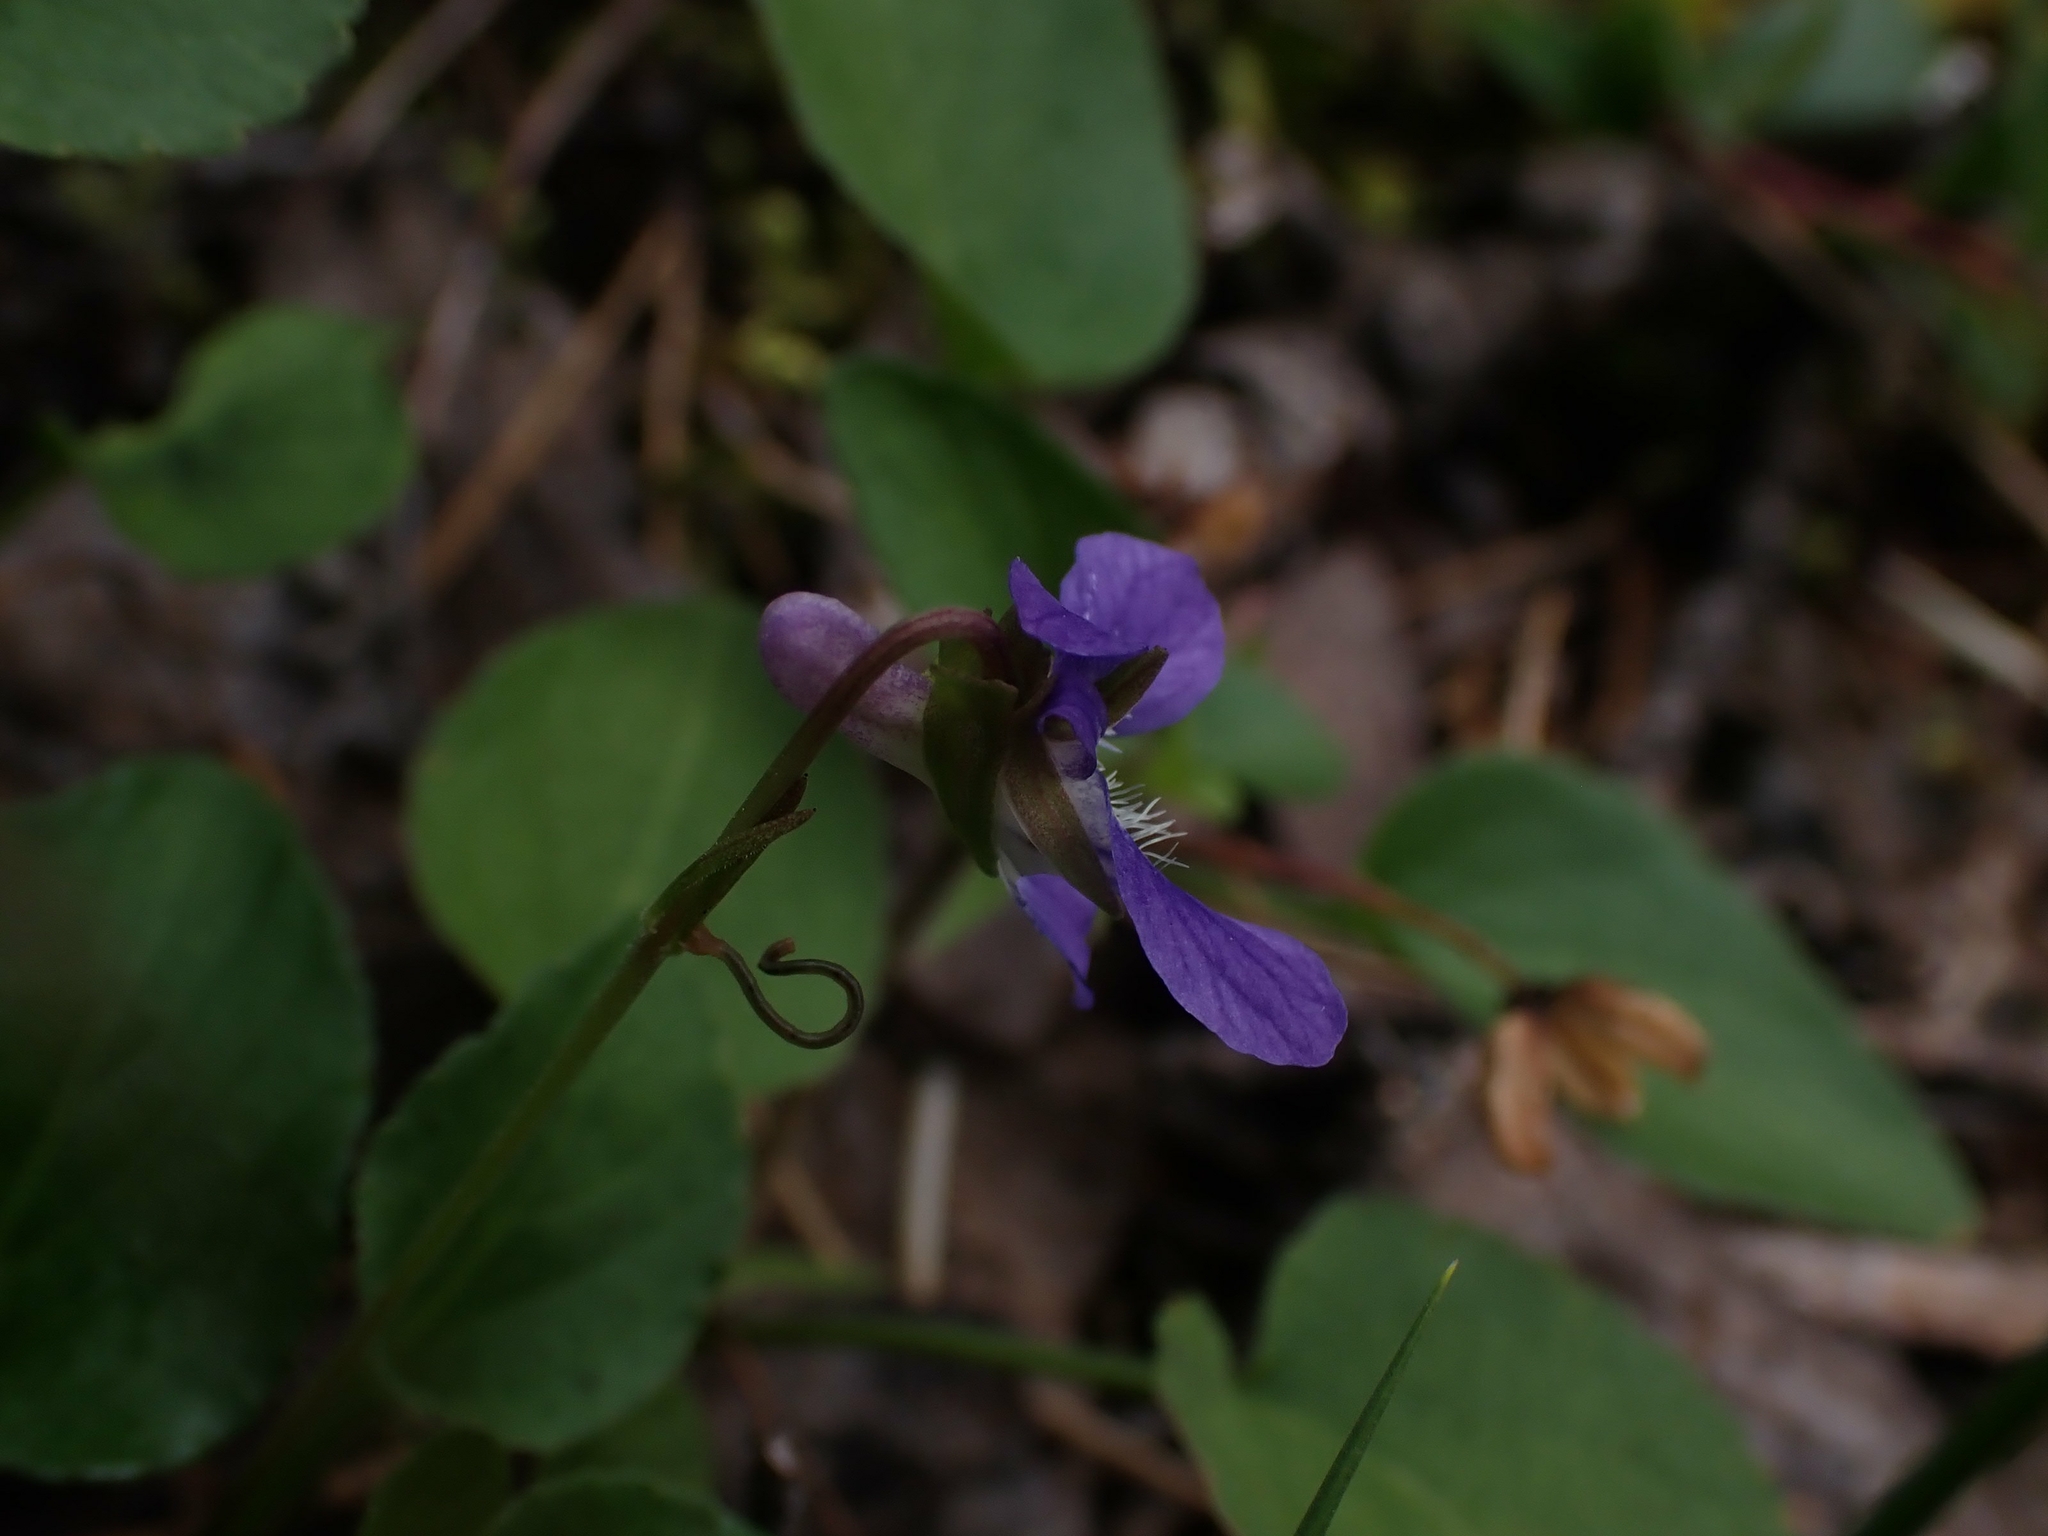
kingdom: Plantae
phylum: Tracheophyta
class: Magnoliopsida
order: Malpighiales
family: Violaceae
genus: Viola
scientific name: Viola adunca
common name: Sand violet
